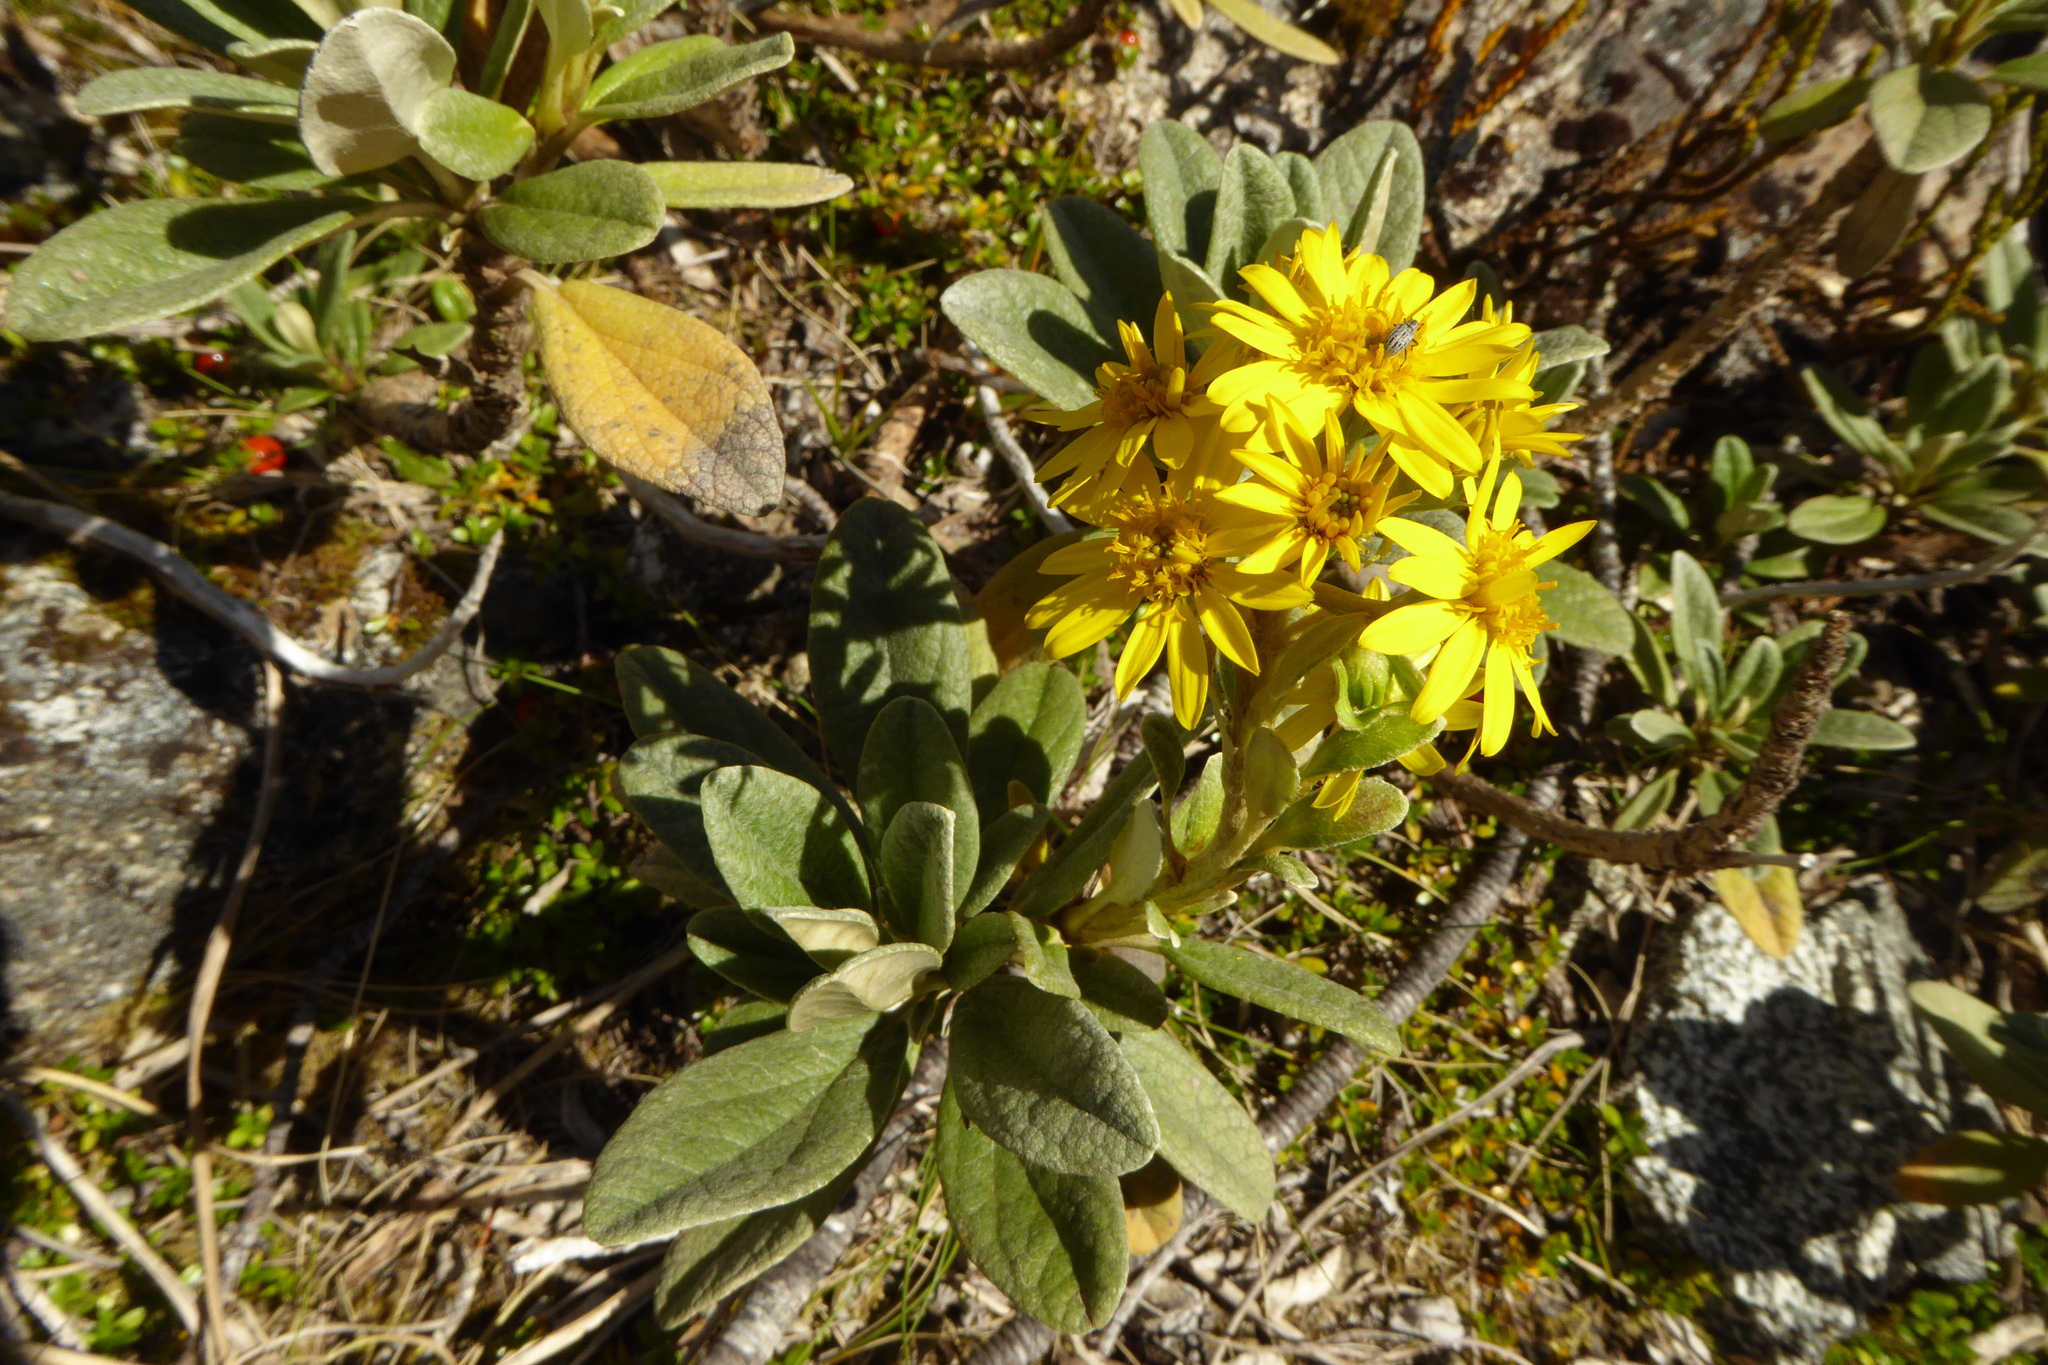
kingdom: Plantae
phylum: Tracheophyta
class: Magnoliopsida
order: Asterales
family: Asteraceae
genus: Brachyglottis
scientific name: Brachyglottis revoluta
